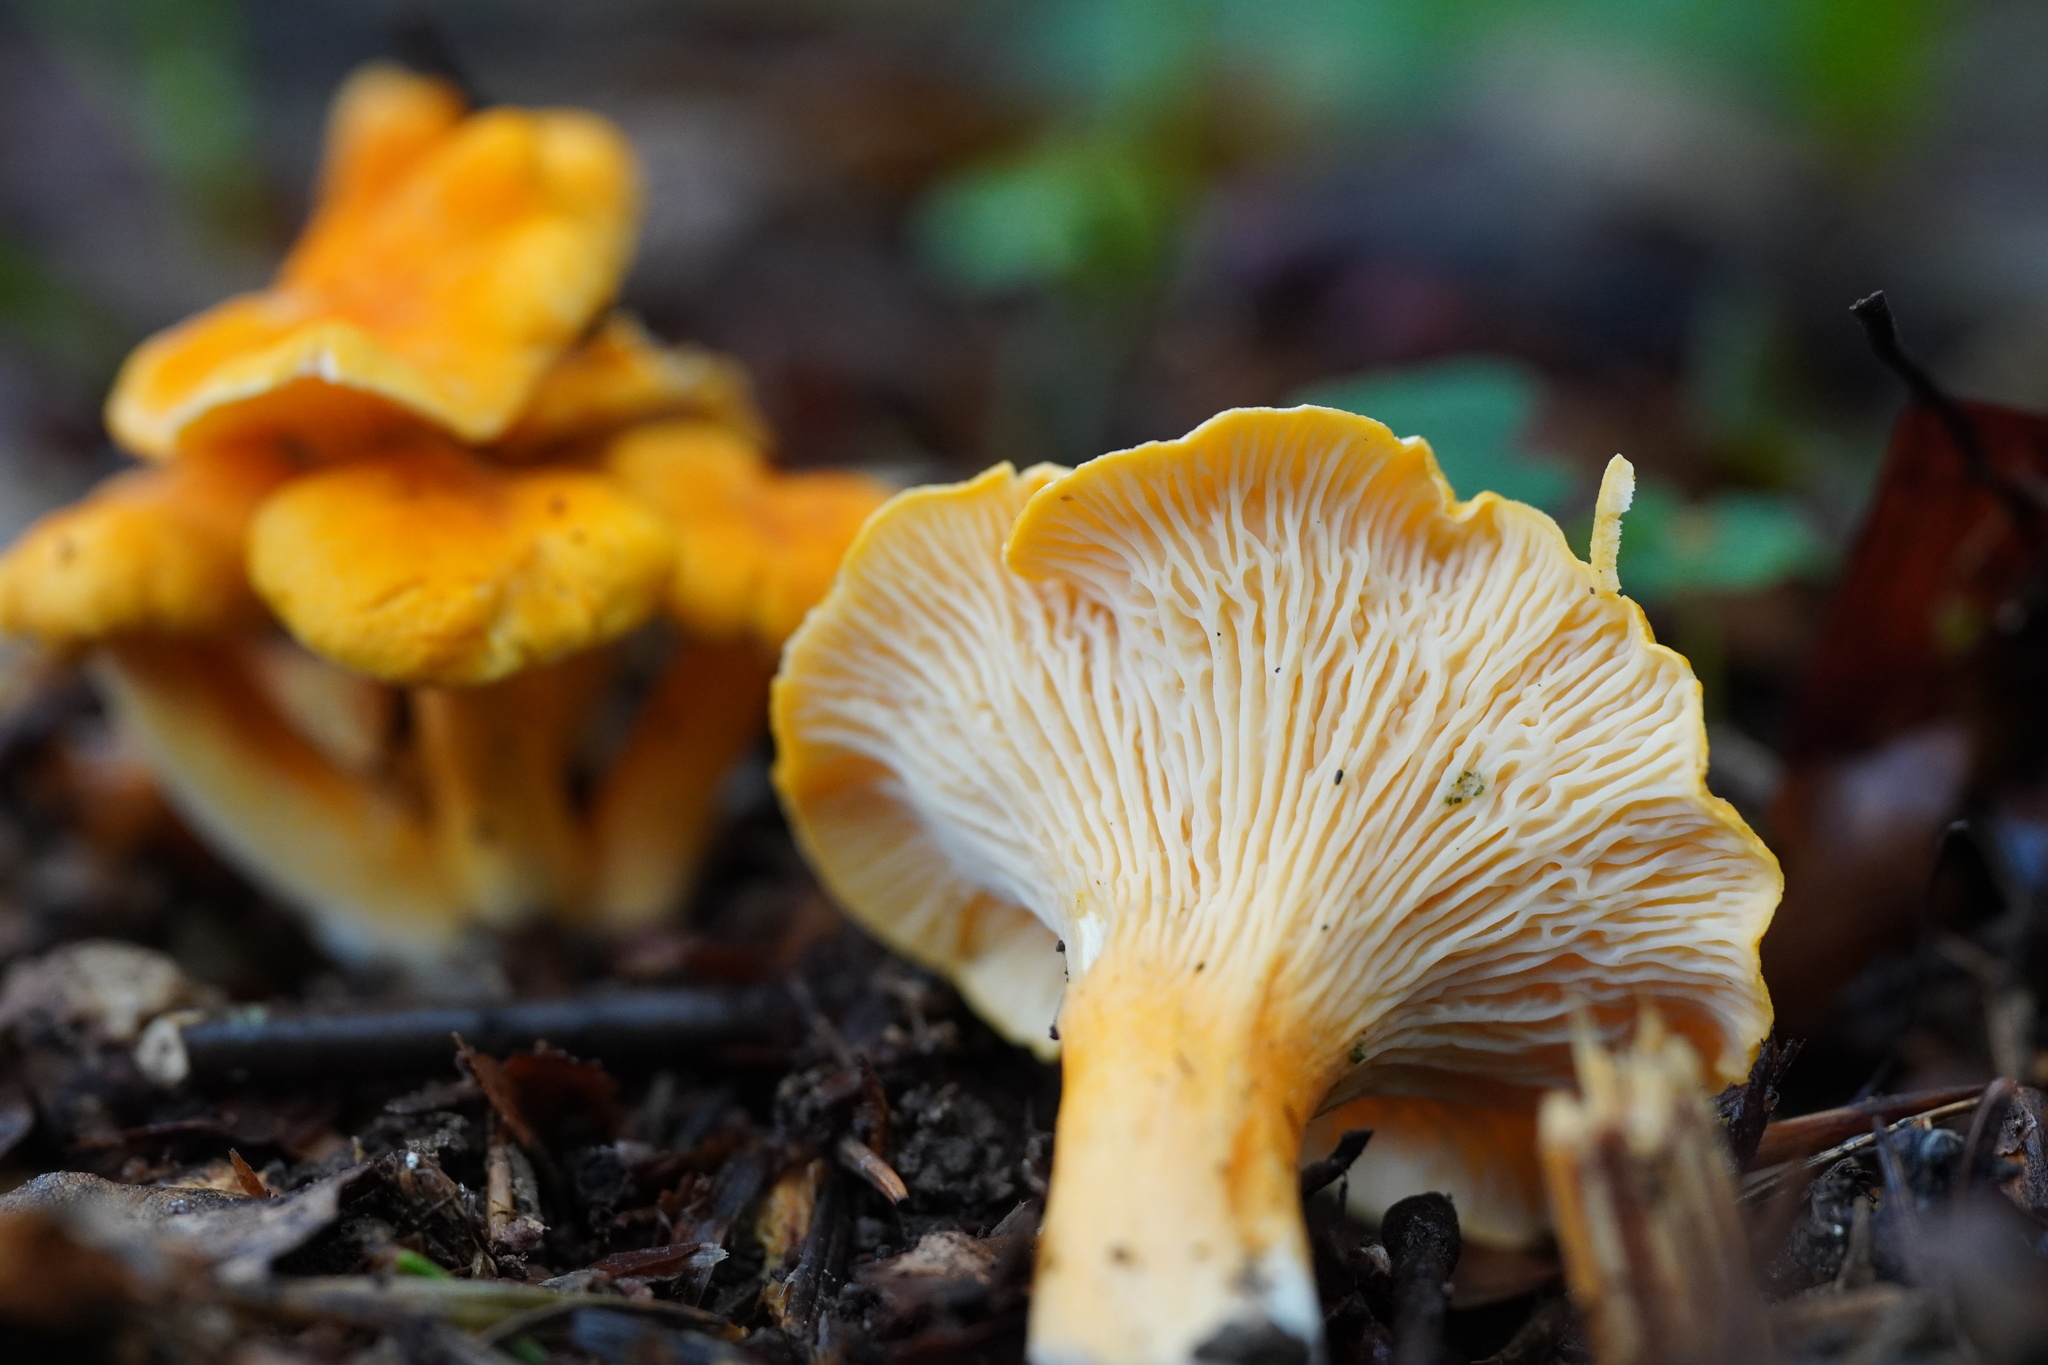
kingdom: Fungi
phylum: Basidiomycota
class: Agaricomycetes
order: Cantharellales
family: Hydnaceae
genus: Cantharellus
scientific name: Cantharellus friesii
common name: Orange chanterelle
